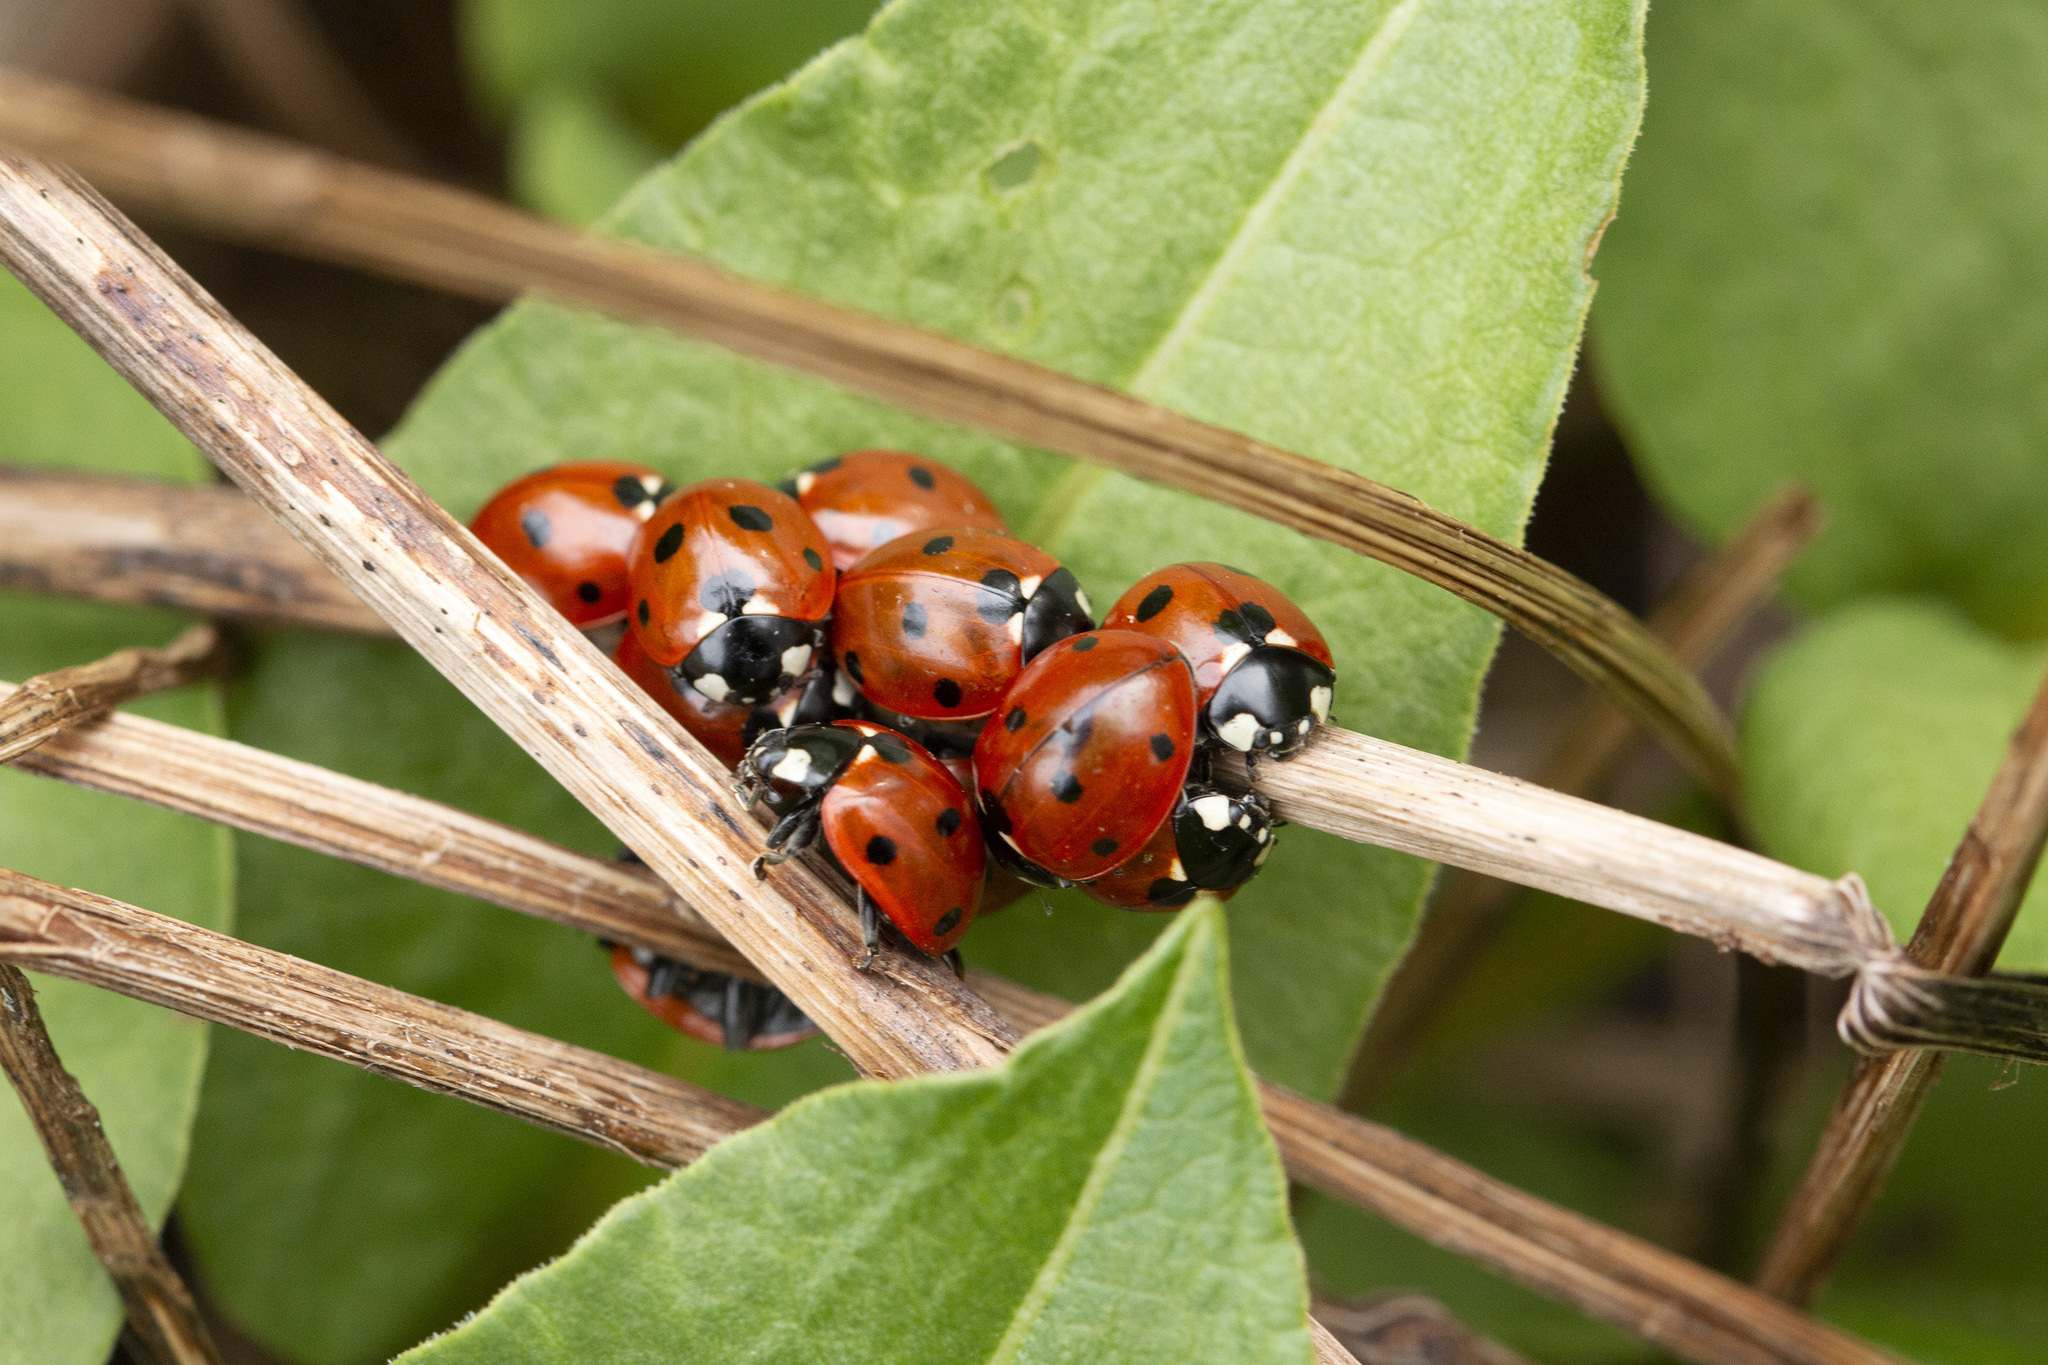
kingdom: Animalia
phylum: Arthropoda
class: Insecta
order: Coleoptera
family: Coccinellidae
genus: Coccinella
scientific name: Coccinella septempunctata
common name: Sevenspotted lady beetle
